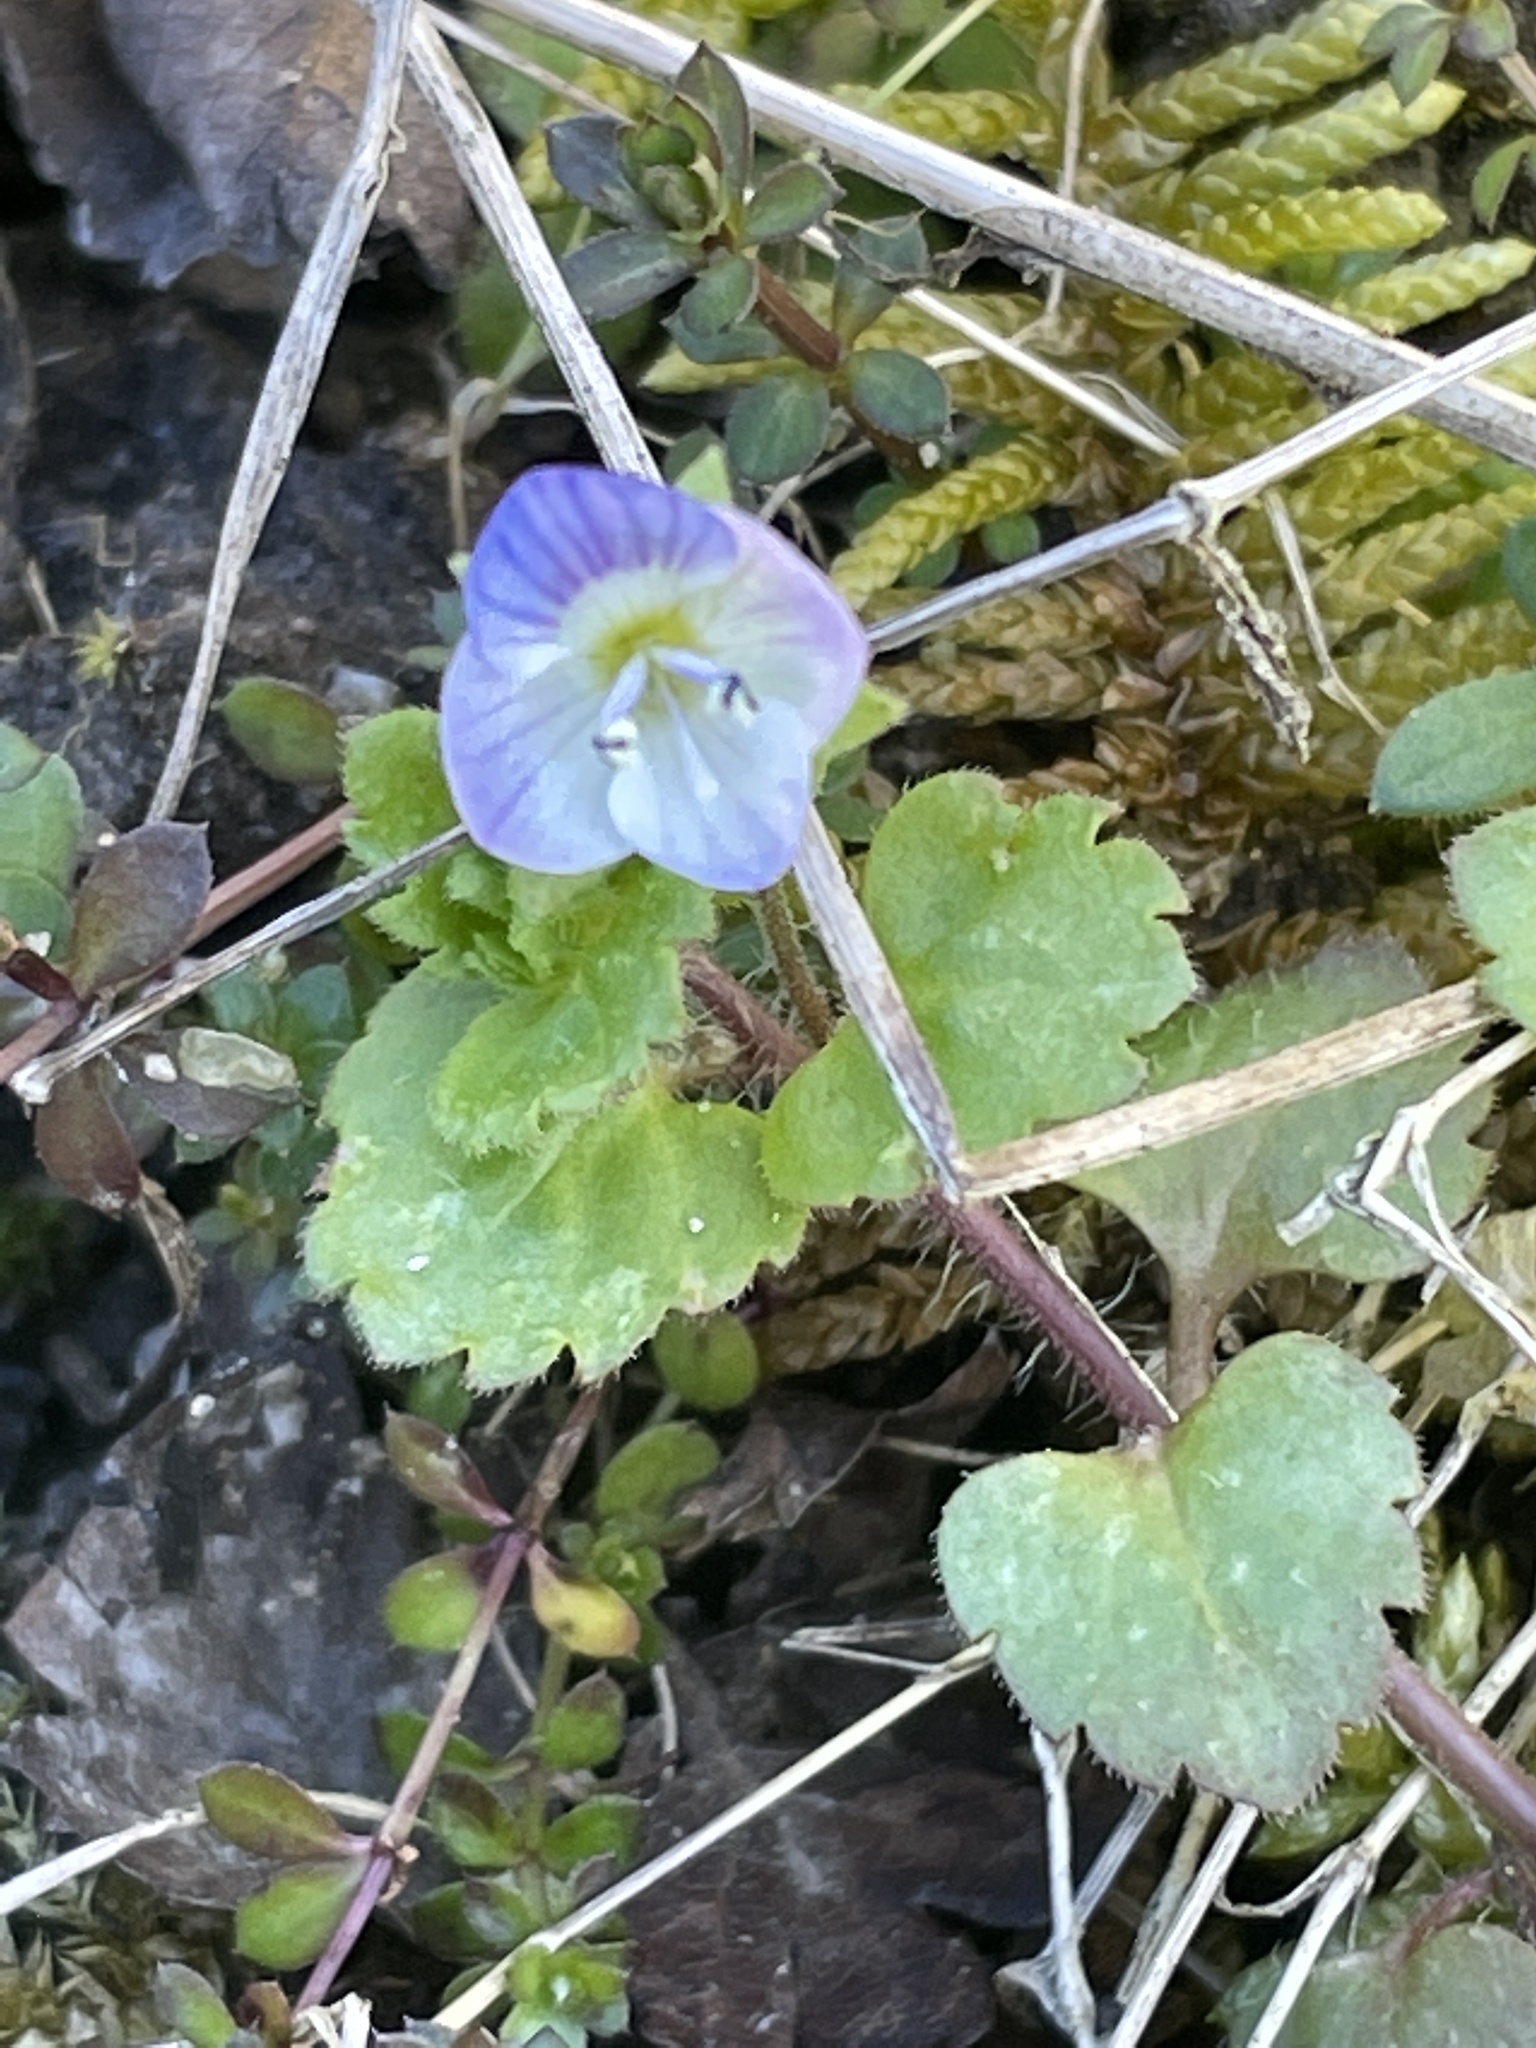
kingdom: Plantae
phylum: Tracheophyta
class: Magnoliopsida
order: Lamiales
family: Plantaginaceae
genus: Veronica
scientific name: Veronica persica
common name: Common field-speedwell
